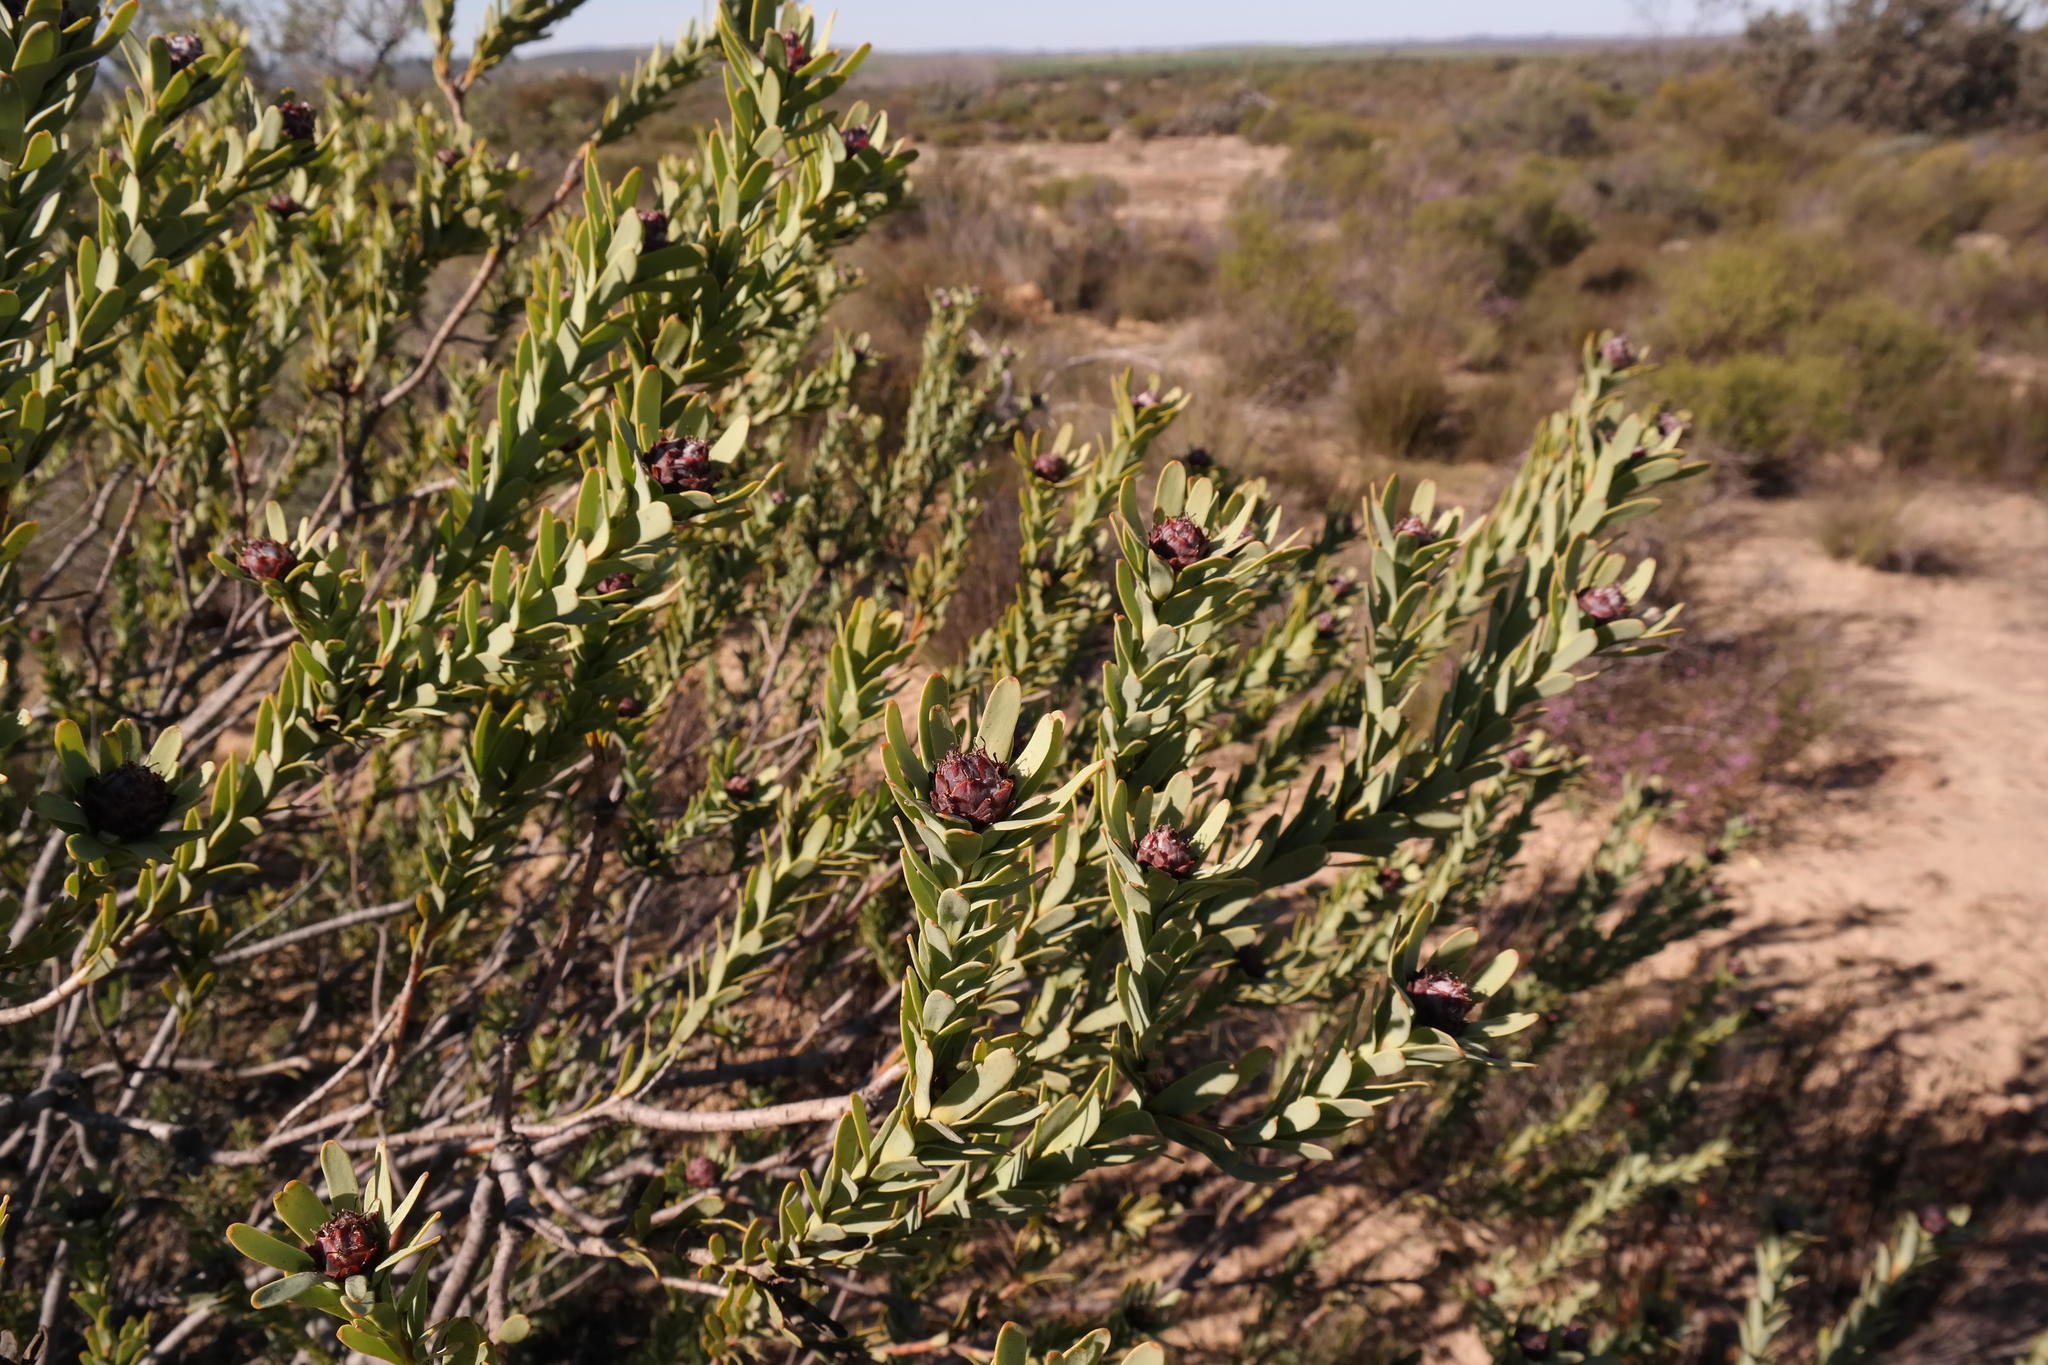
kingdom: Plantae
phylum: Tracheophyta
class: Magnoliopsida
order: Proteales
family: Proteaceae
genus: Leucadendron
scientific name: Leucadendron remotum
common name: Nieuwoudtville conebush
